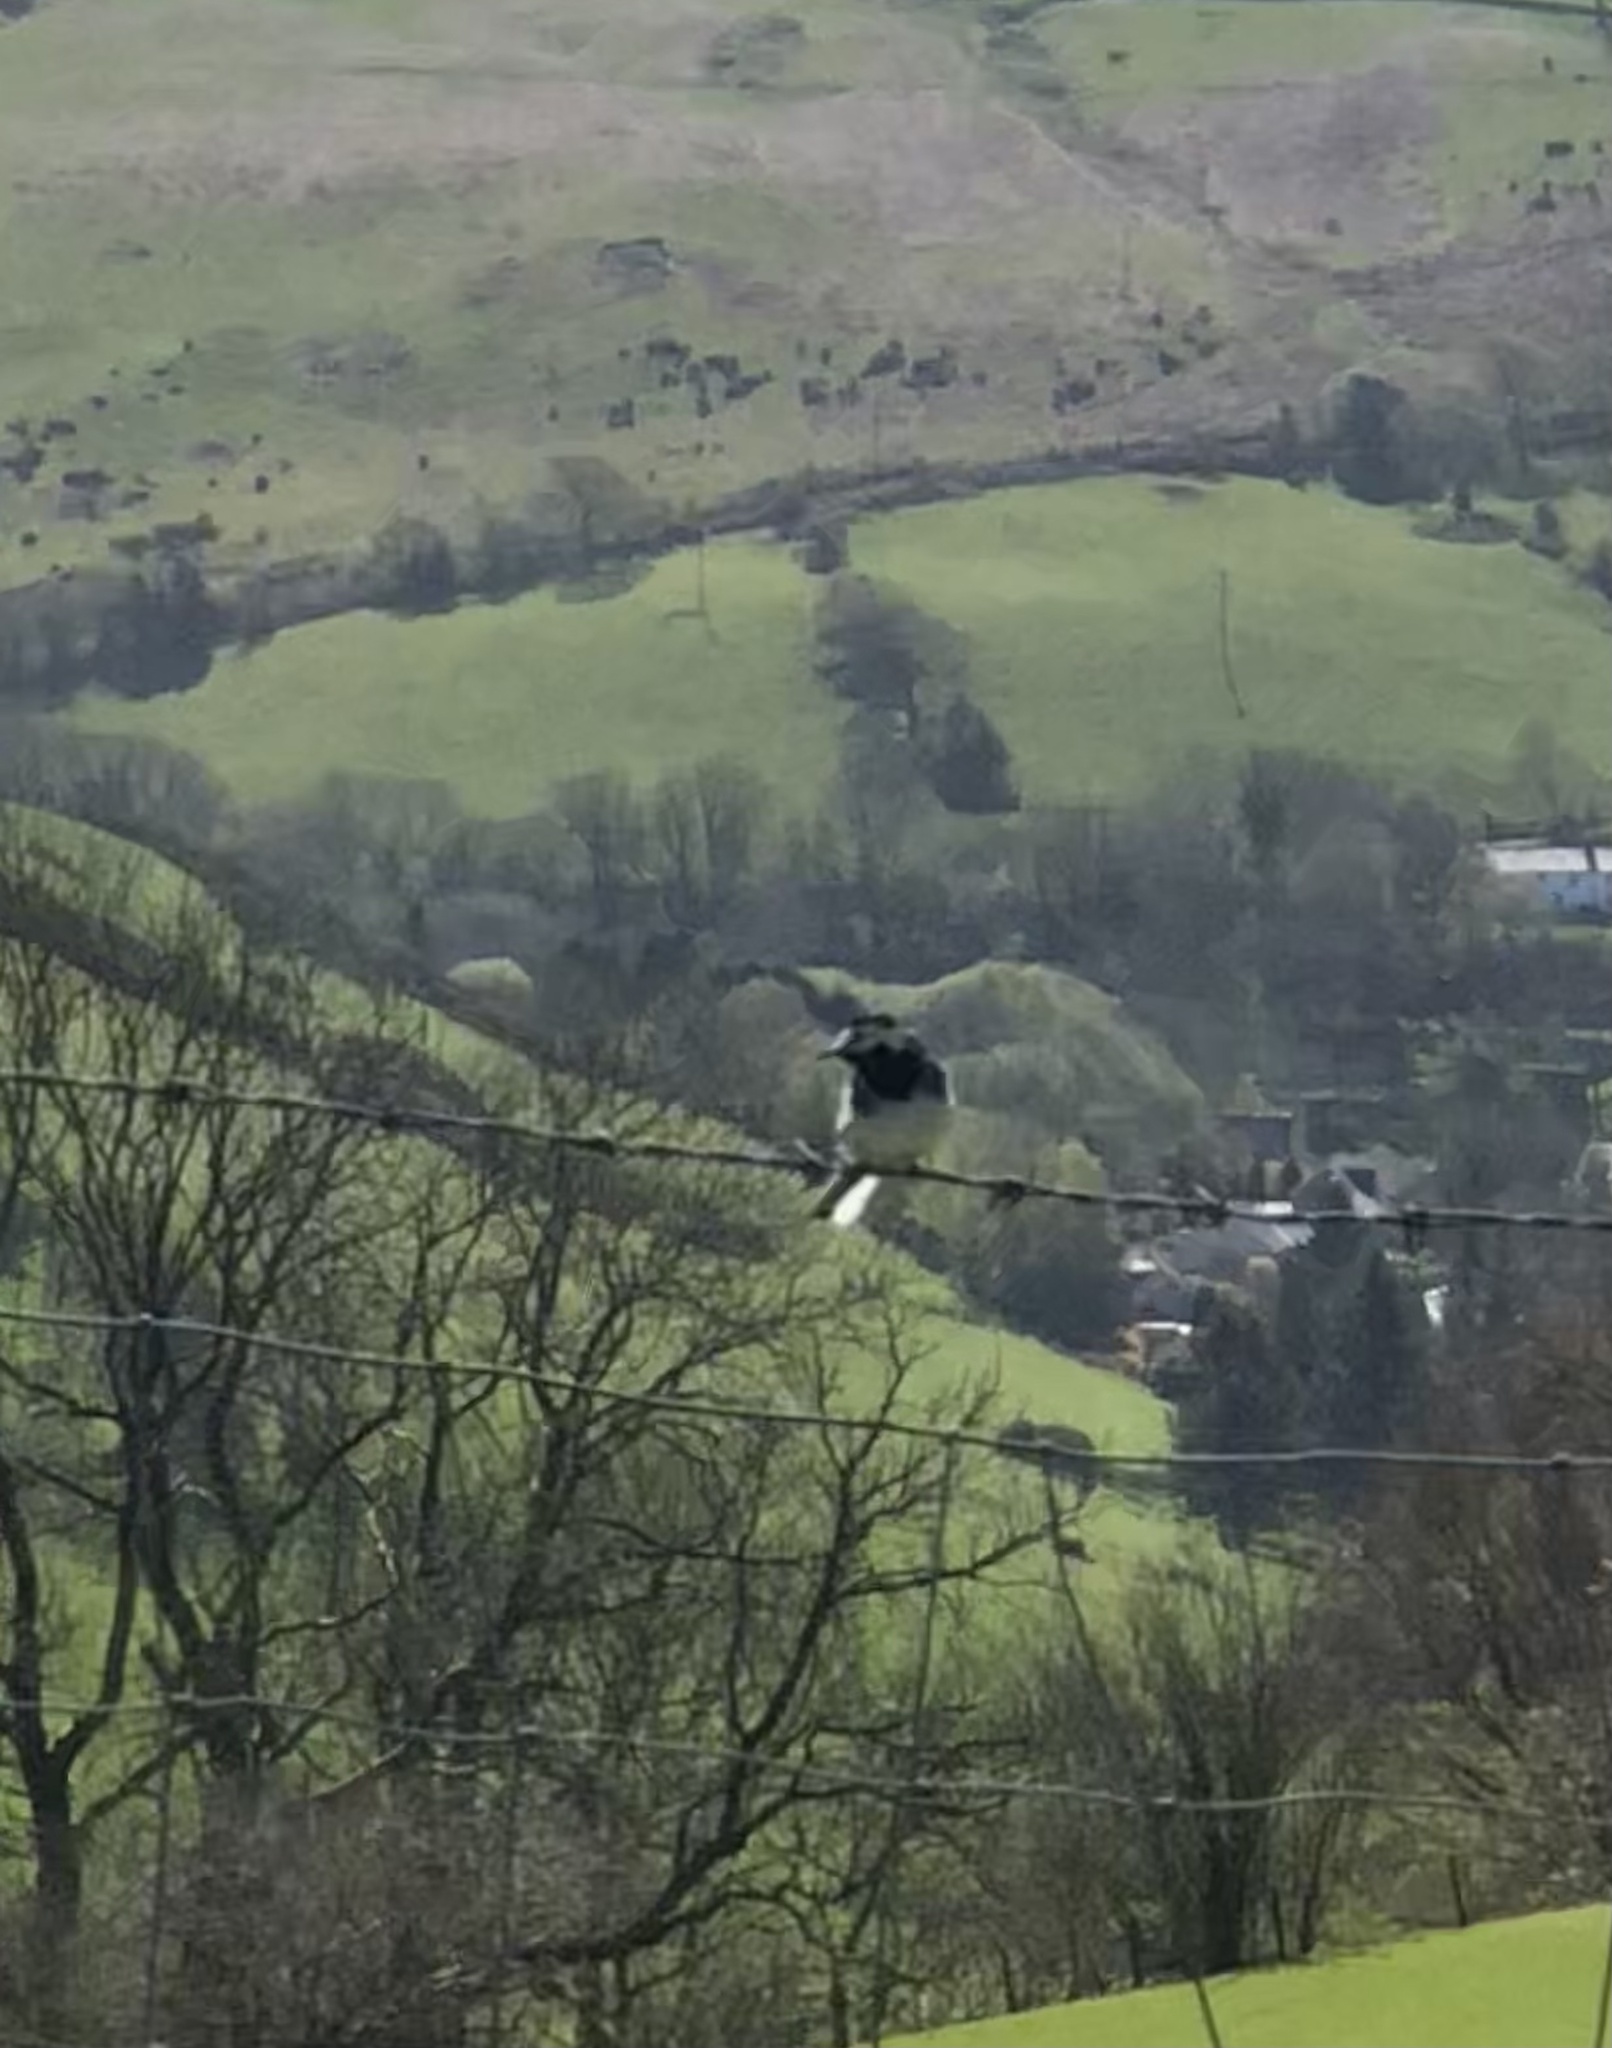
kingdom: Animalia
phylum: Chordata
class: Aves
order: Passeriformes
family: Motacillidae
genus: Motacilla
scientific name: Motacilla alba
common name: White wagtail
